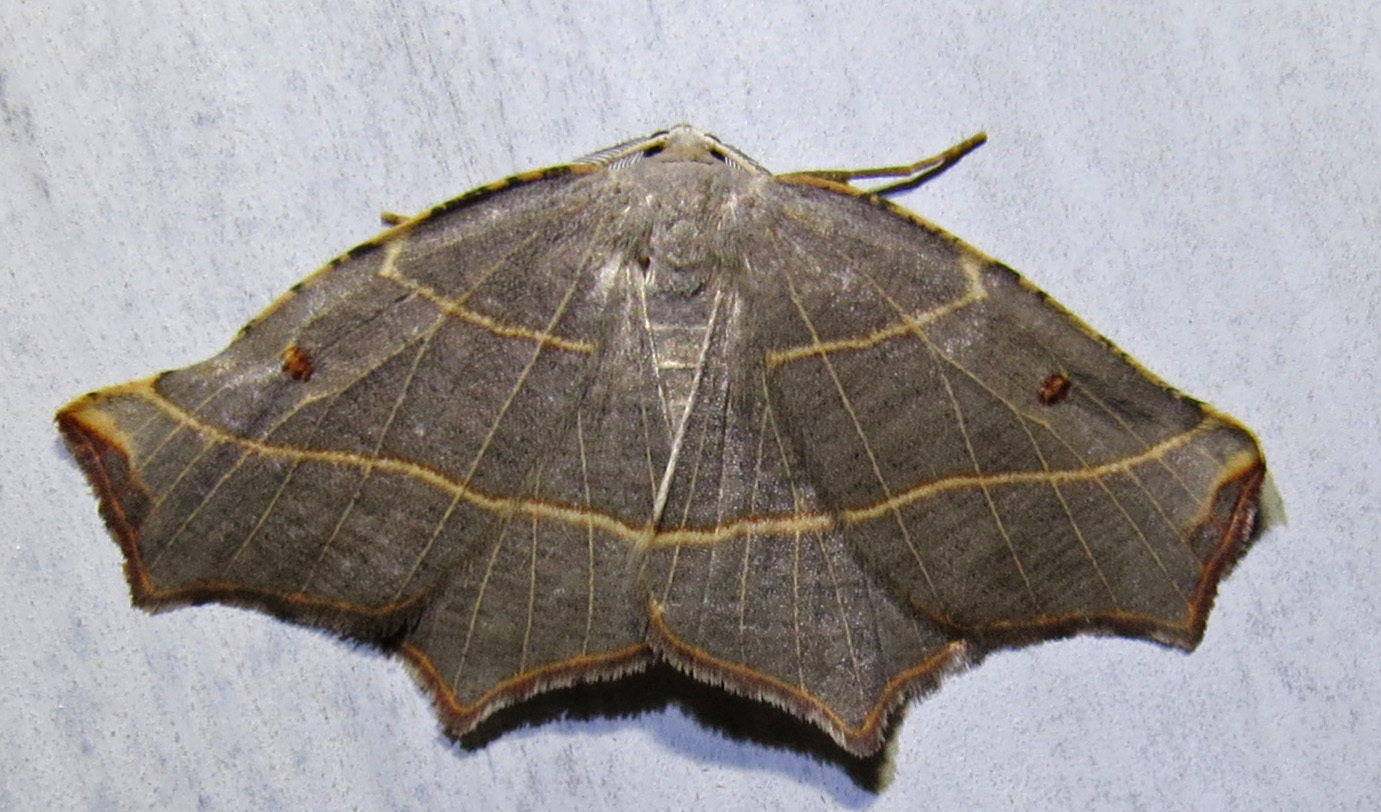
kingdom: Animalia
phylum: Arthropoda
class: Insecta
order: Lepidoptera
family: Geometridae
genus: Metanema
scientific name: Metanema inatomaria
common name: Pale metanema
